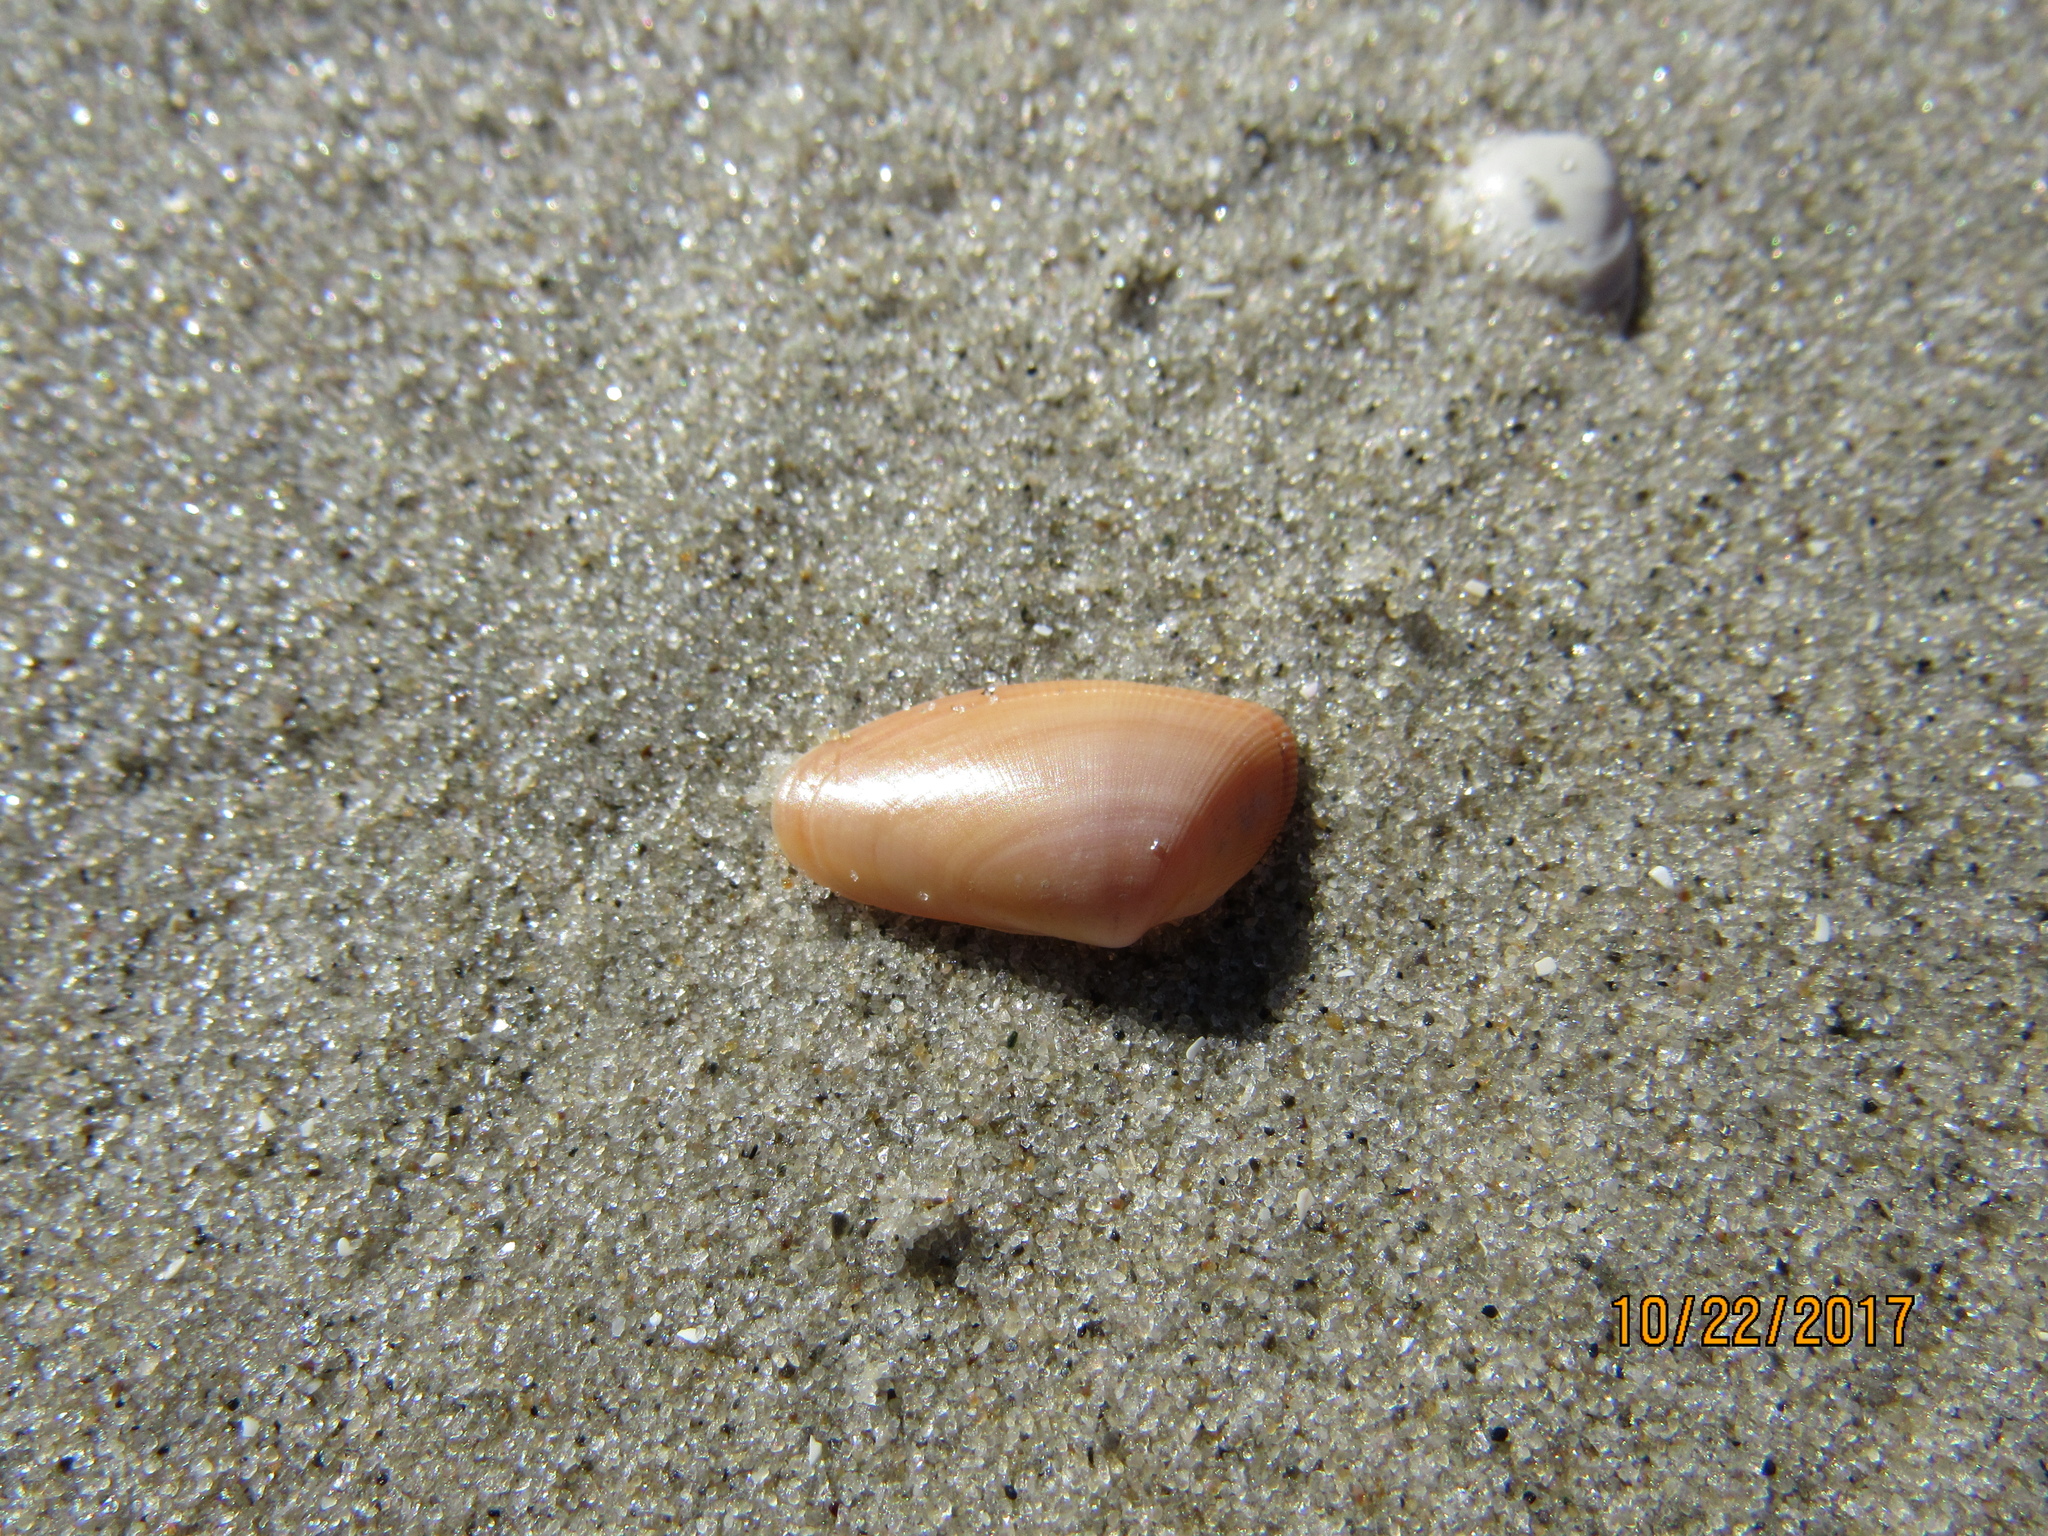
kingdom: Animalia
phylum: Mollusca
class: Bivalvia
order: Cardiida
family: Donacidae
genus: Donax
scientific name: Donax variabilis
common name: Butterfly shell
